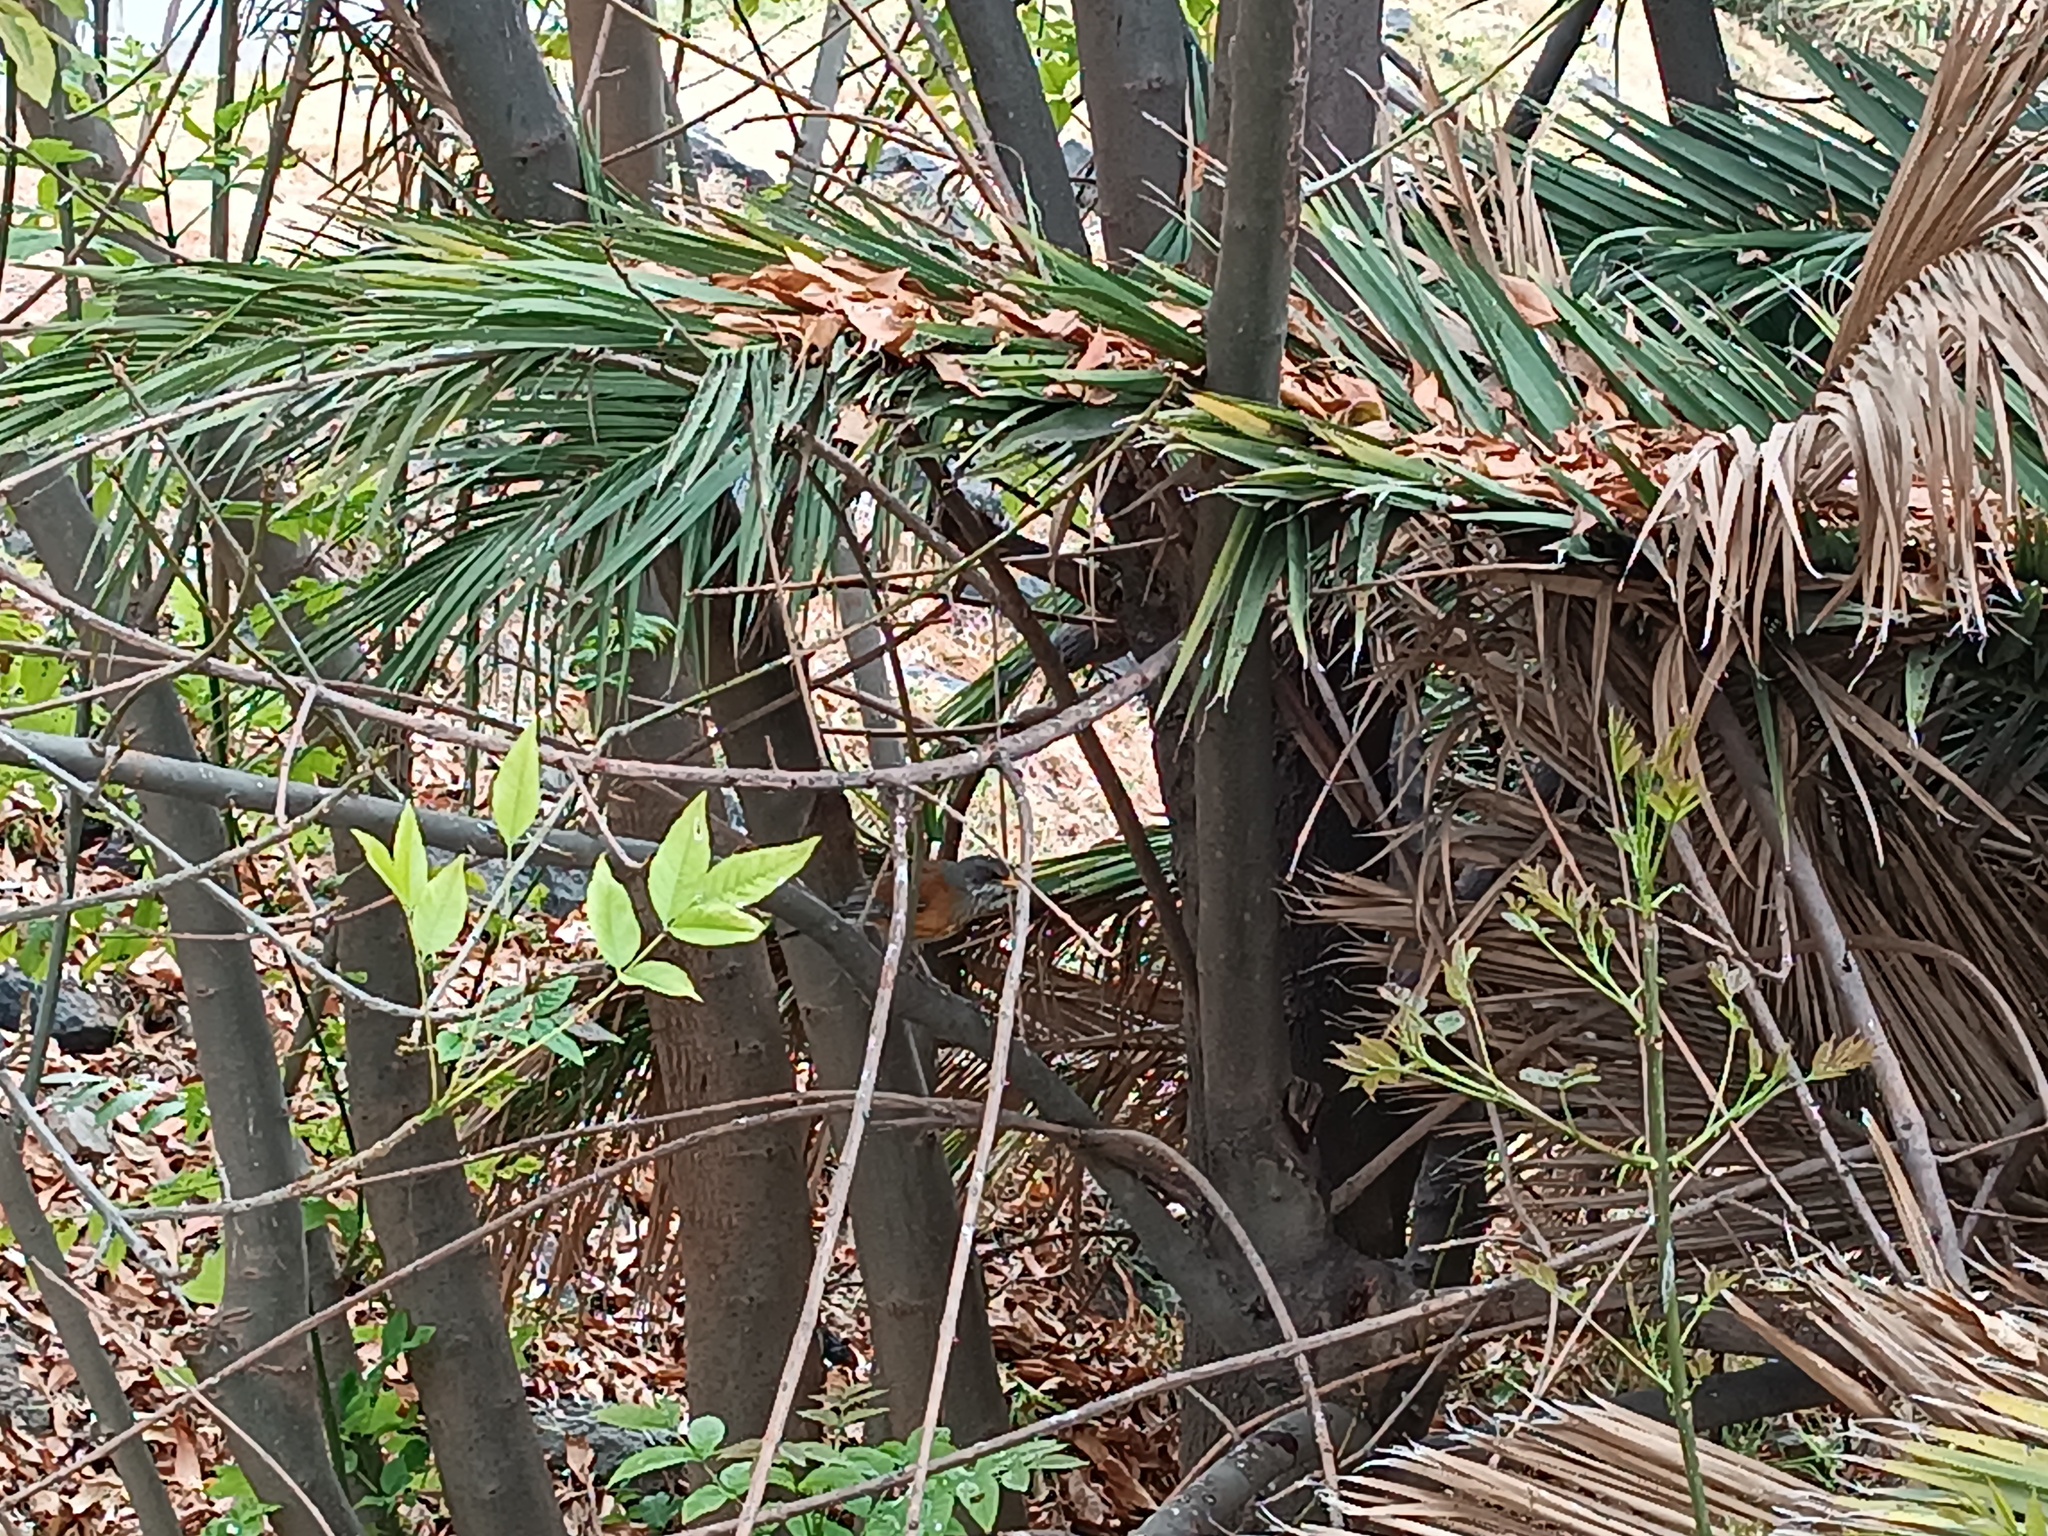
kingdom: Animalia
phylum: Chordata
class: Aves
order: Passeriformes
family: Turdidae
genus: Turdus
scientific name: Turdus rufopalliatus
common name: Rufous-backed robin
